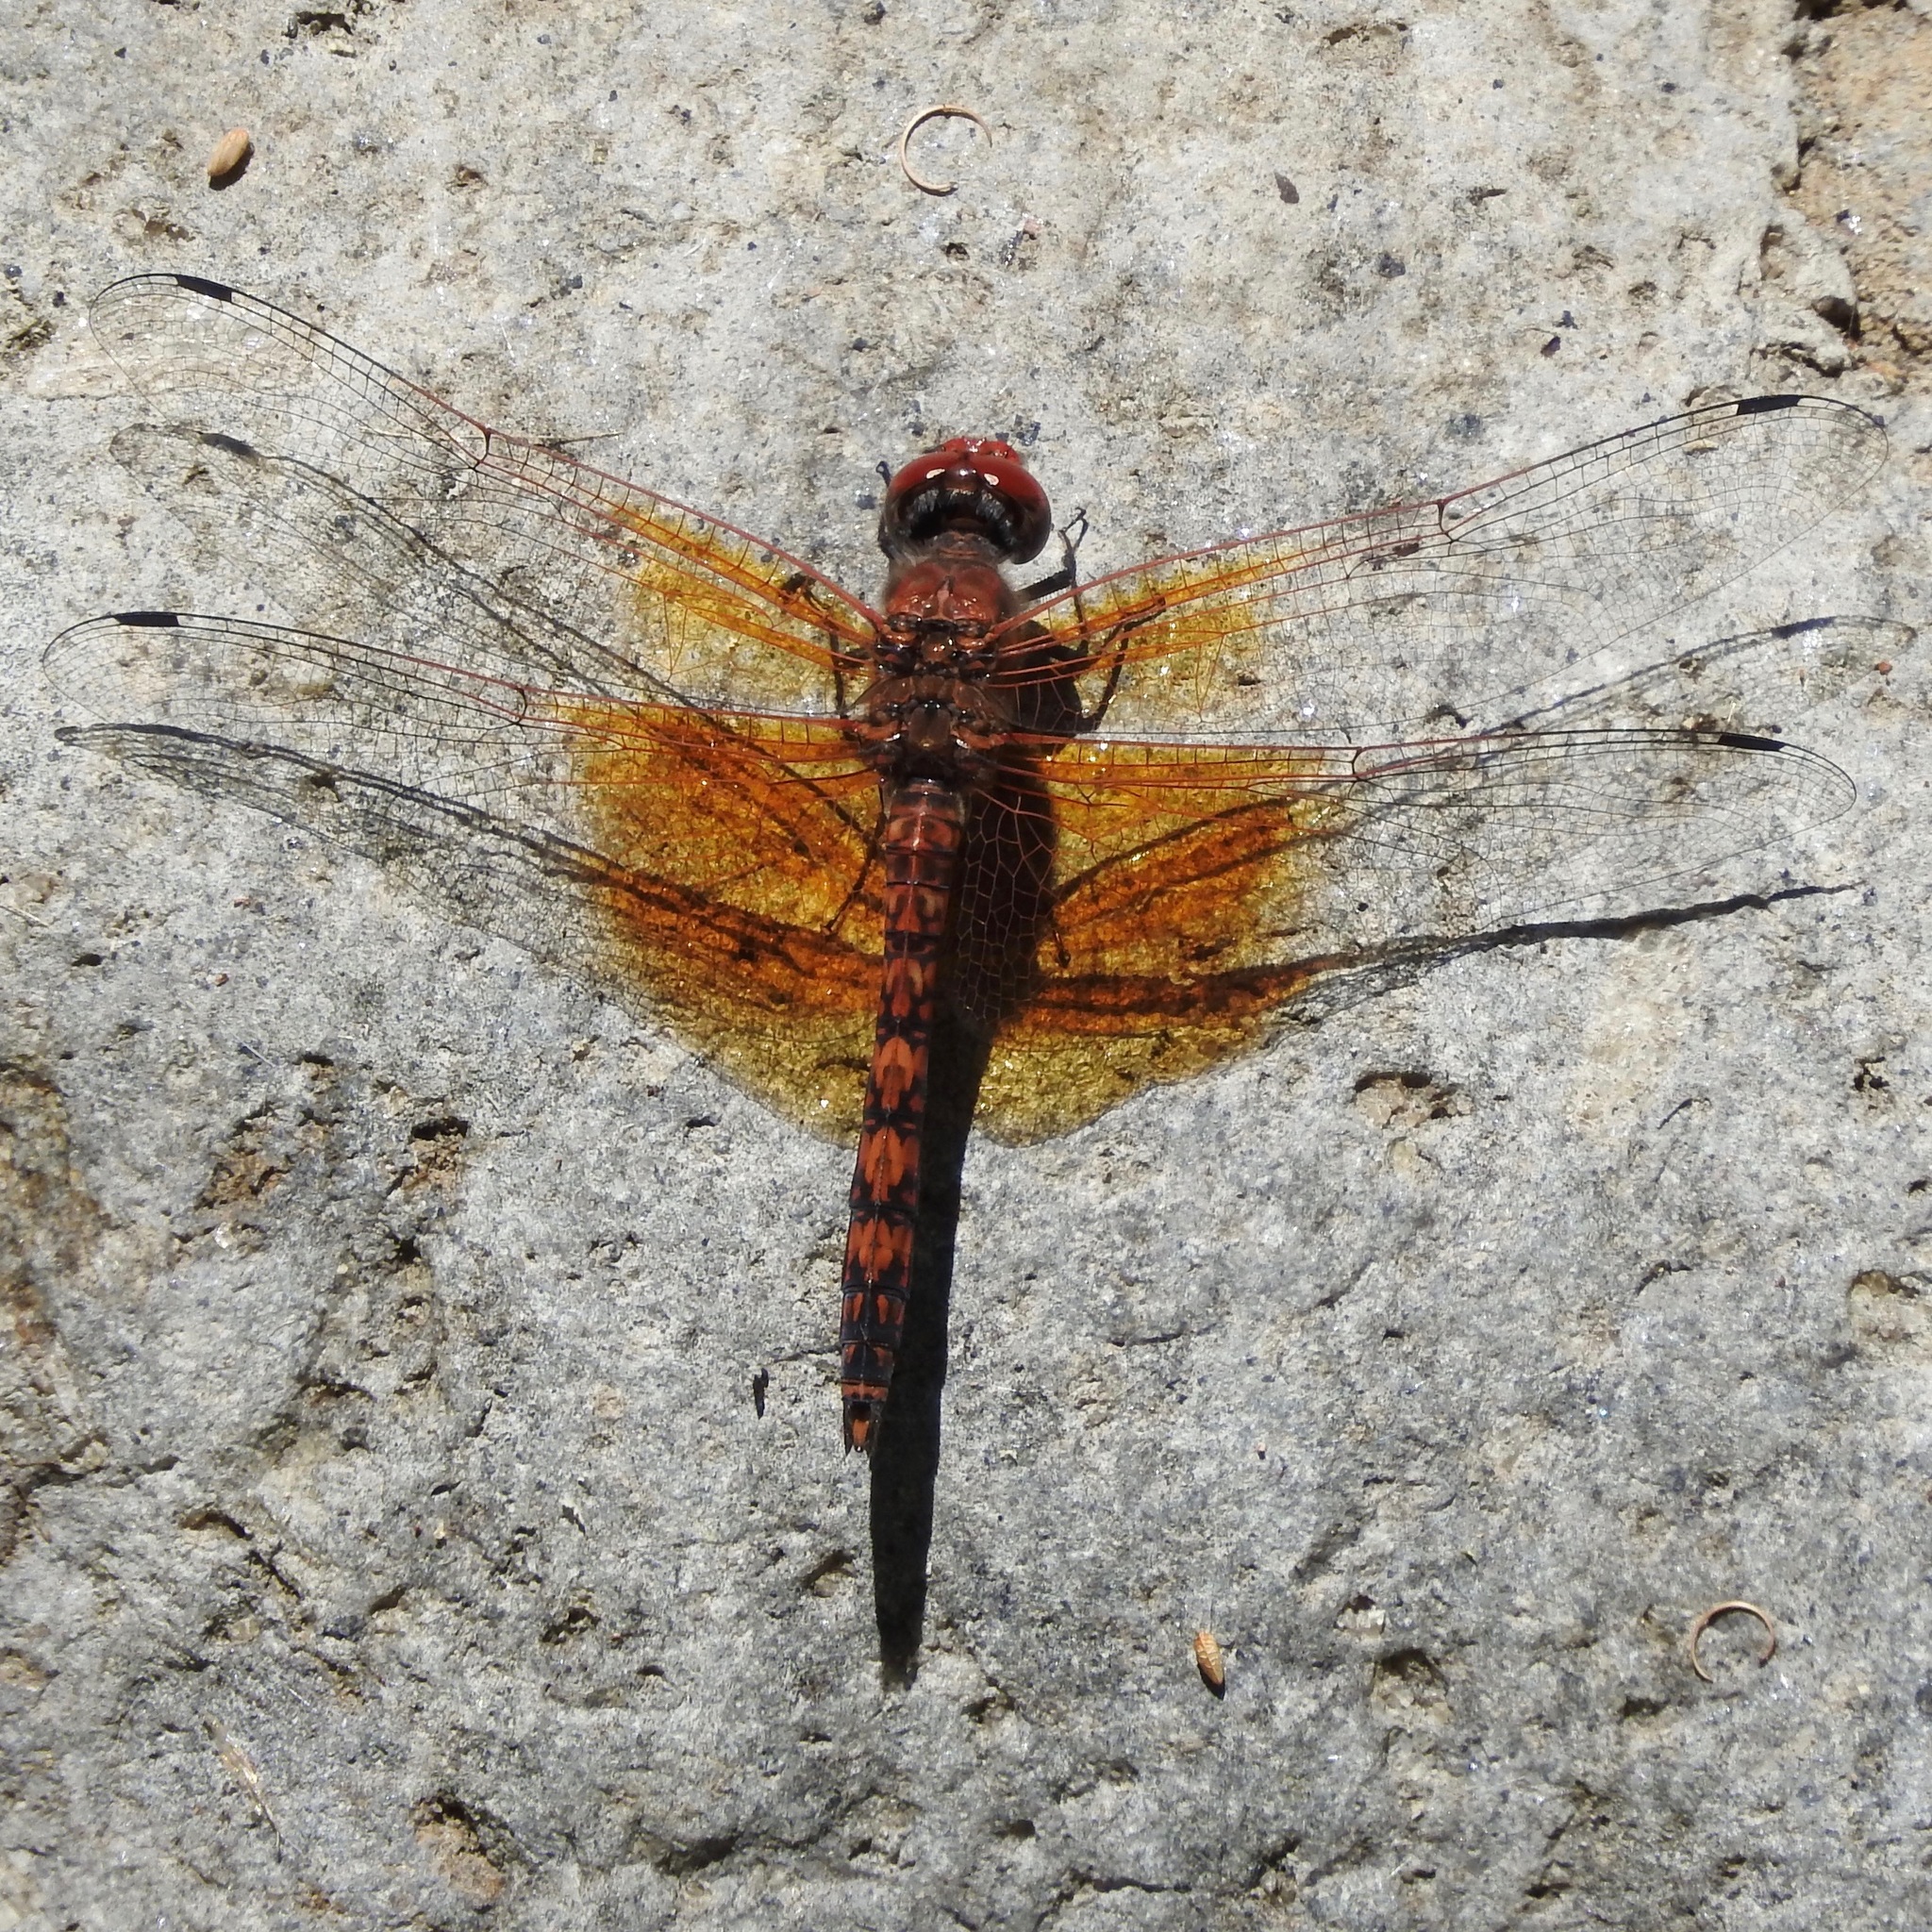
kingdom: Animalia
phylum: Arthropoda
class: Insecta
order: Odonata
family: Libellulidae
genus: Paltothemis
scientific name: Paltothemis lineatipes
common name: Red rock skimmer
